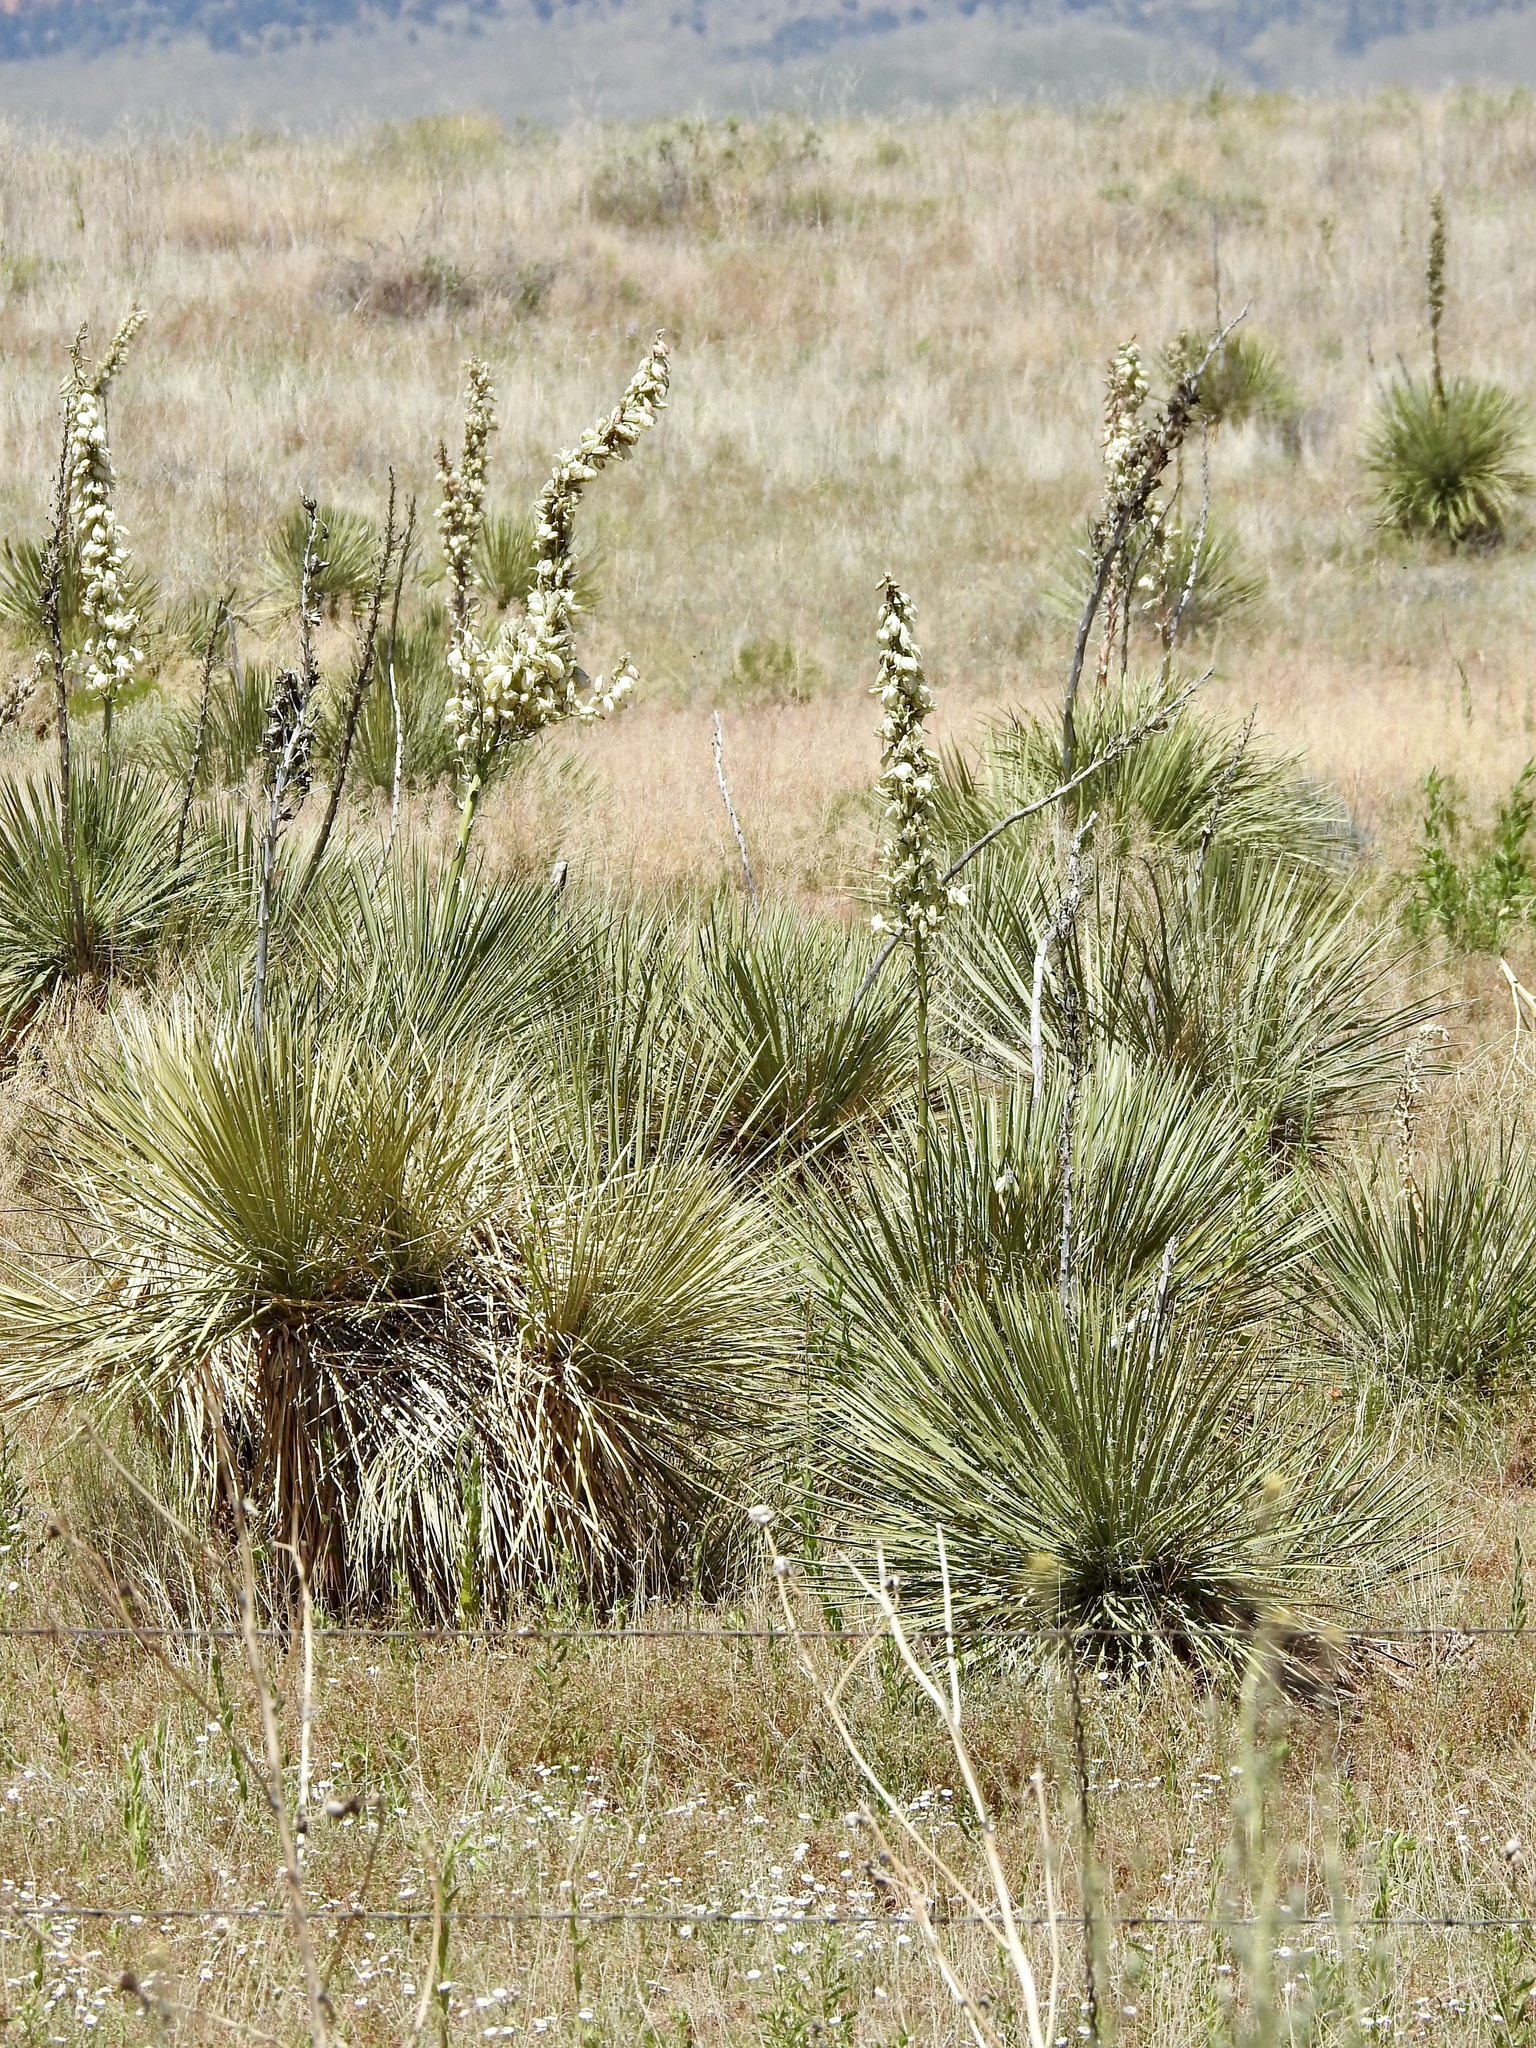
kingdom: Plantae
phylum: Tracheophyta
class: Liliopsida
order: Asparagales
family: Asparagaceae
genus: Yucca
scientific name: Yucca angustissima
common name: Narrowleaf yucca
